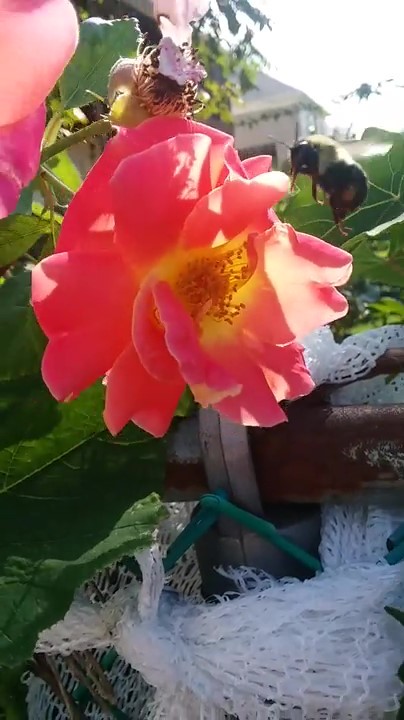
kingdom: Animalia
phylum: Arthropoda
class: Insecta
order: Hymenoptera
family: Apidae
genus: Bombus
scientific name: Bombus impatiens
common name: Common eastern bumble bee
